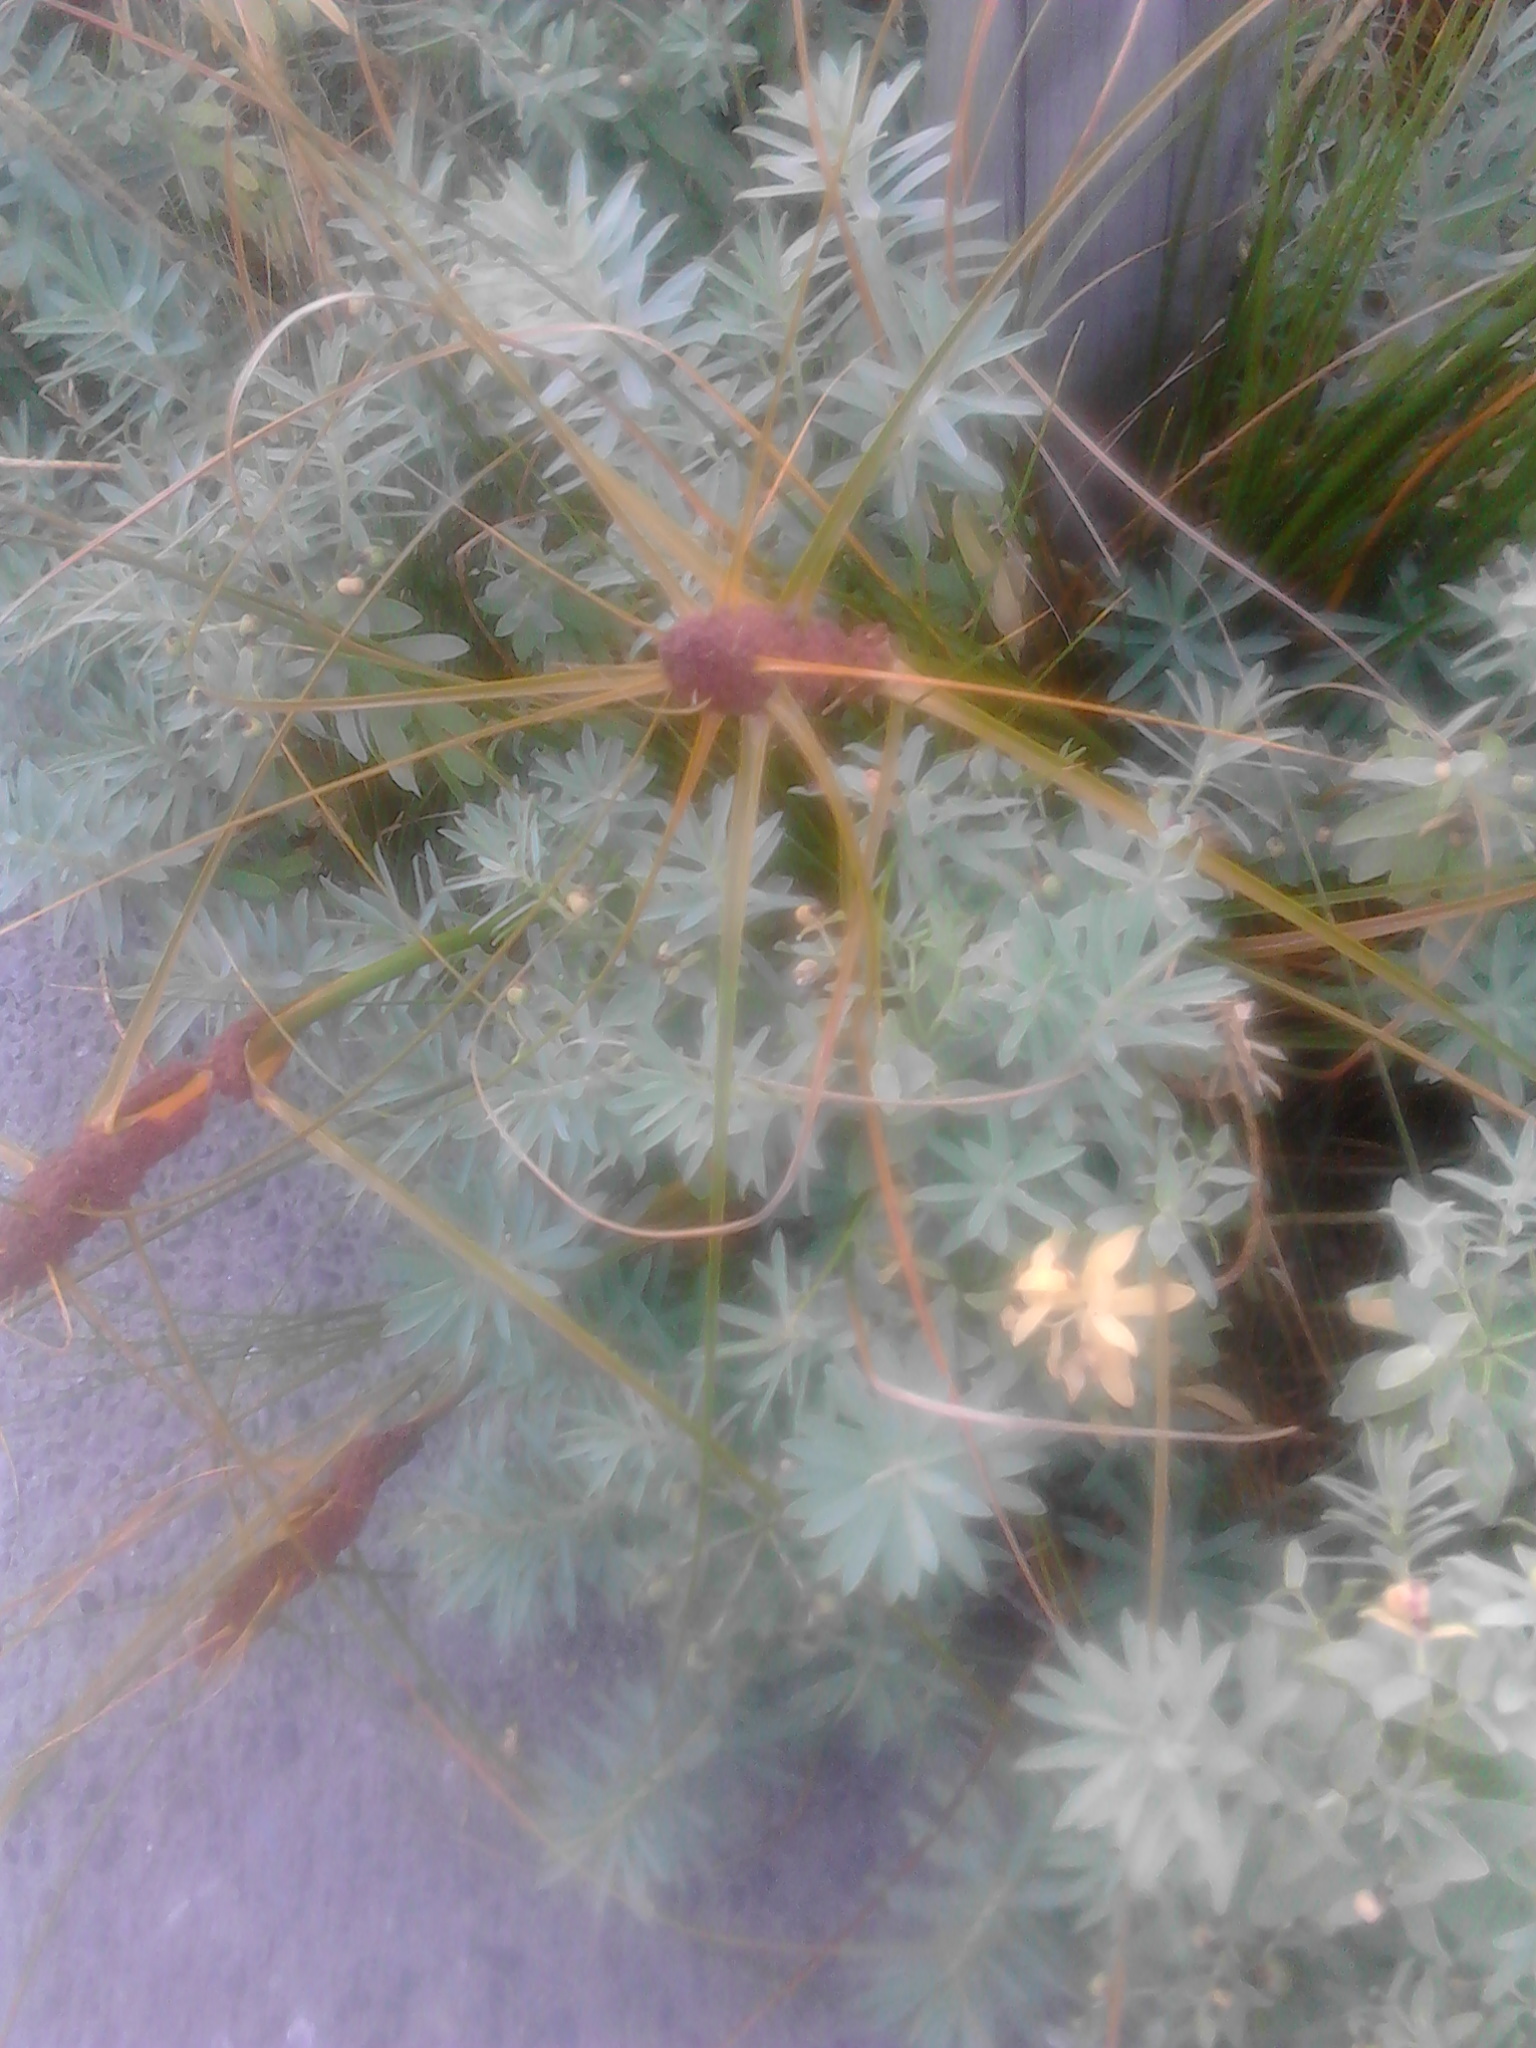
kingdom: Plantae
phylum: Tracheophyta
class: Liliopsida
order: Poales
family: Cyperaceae
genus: Ficinia
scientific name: Ficinia spiralis
